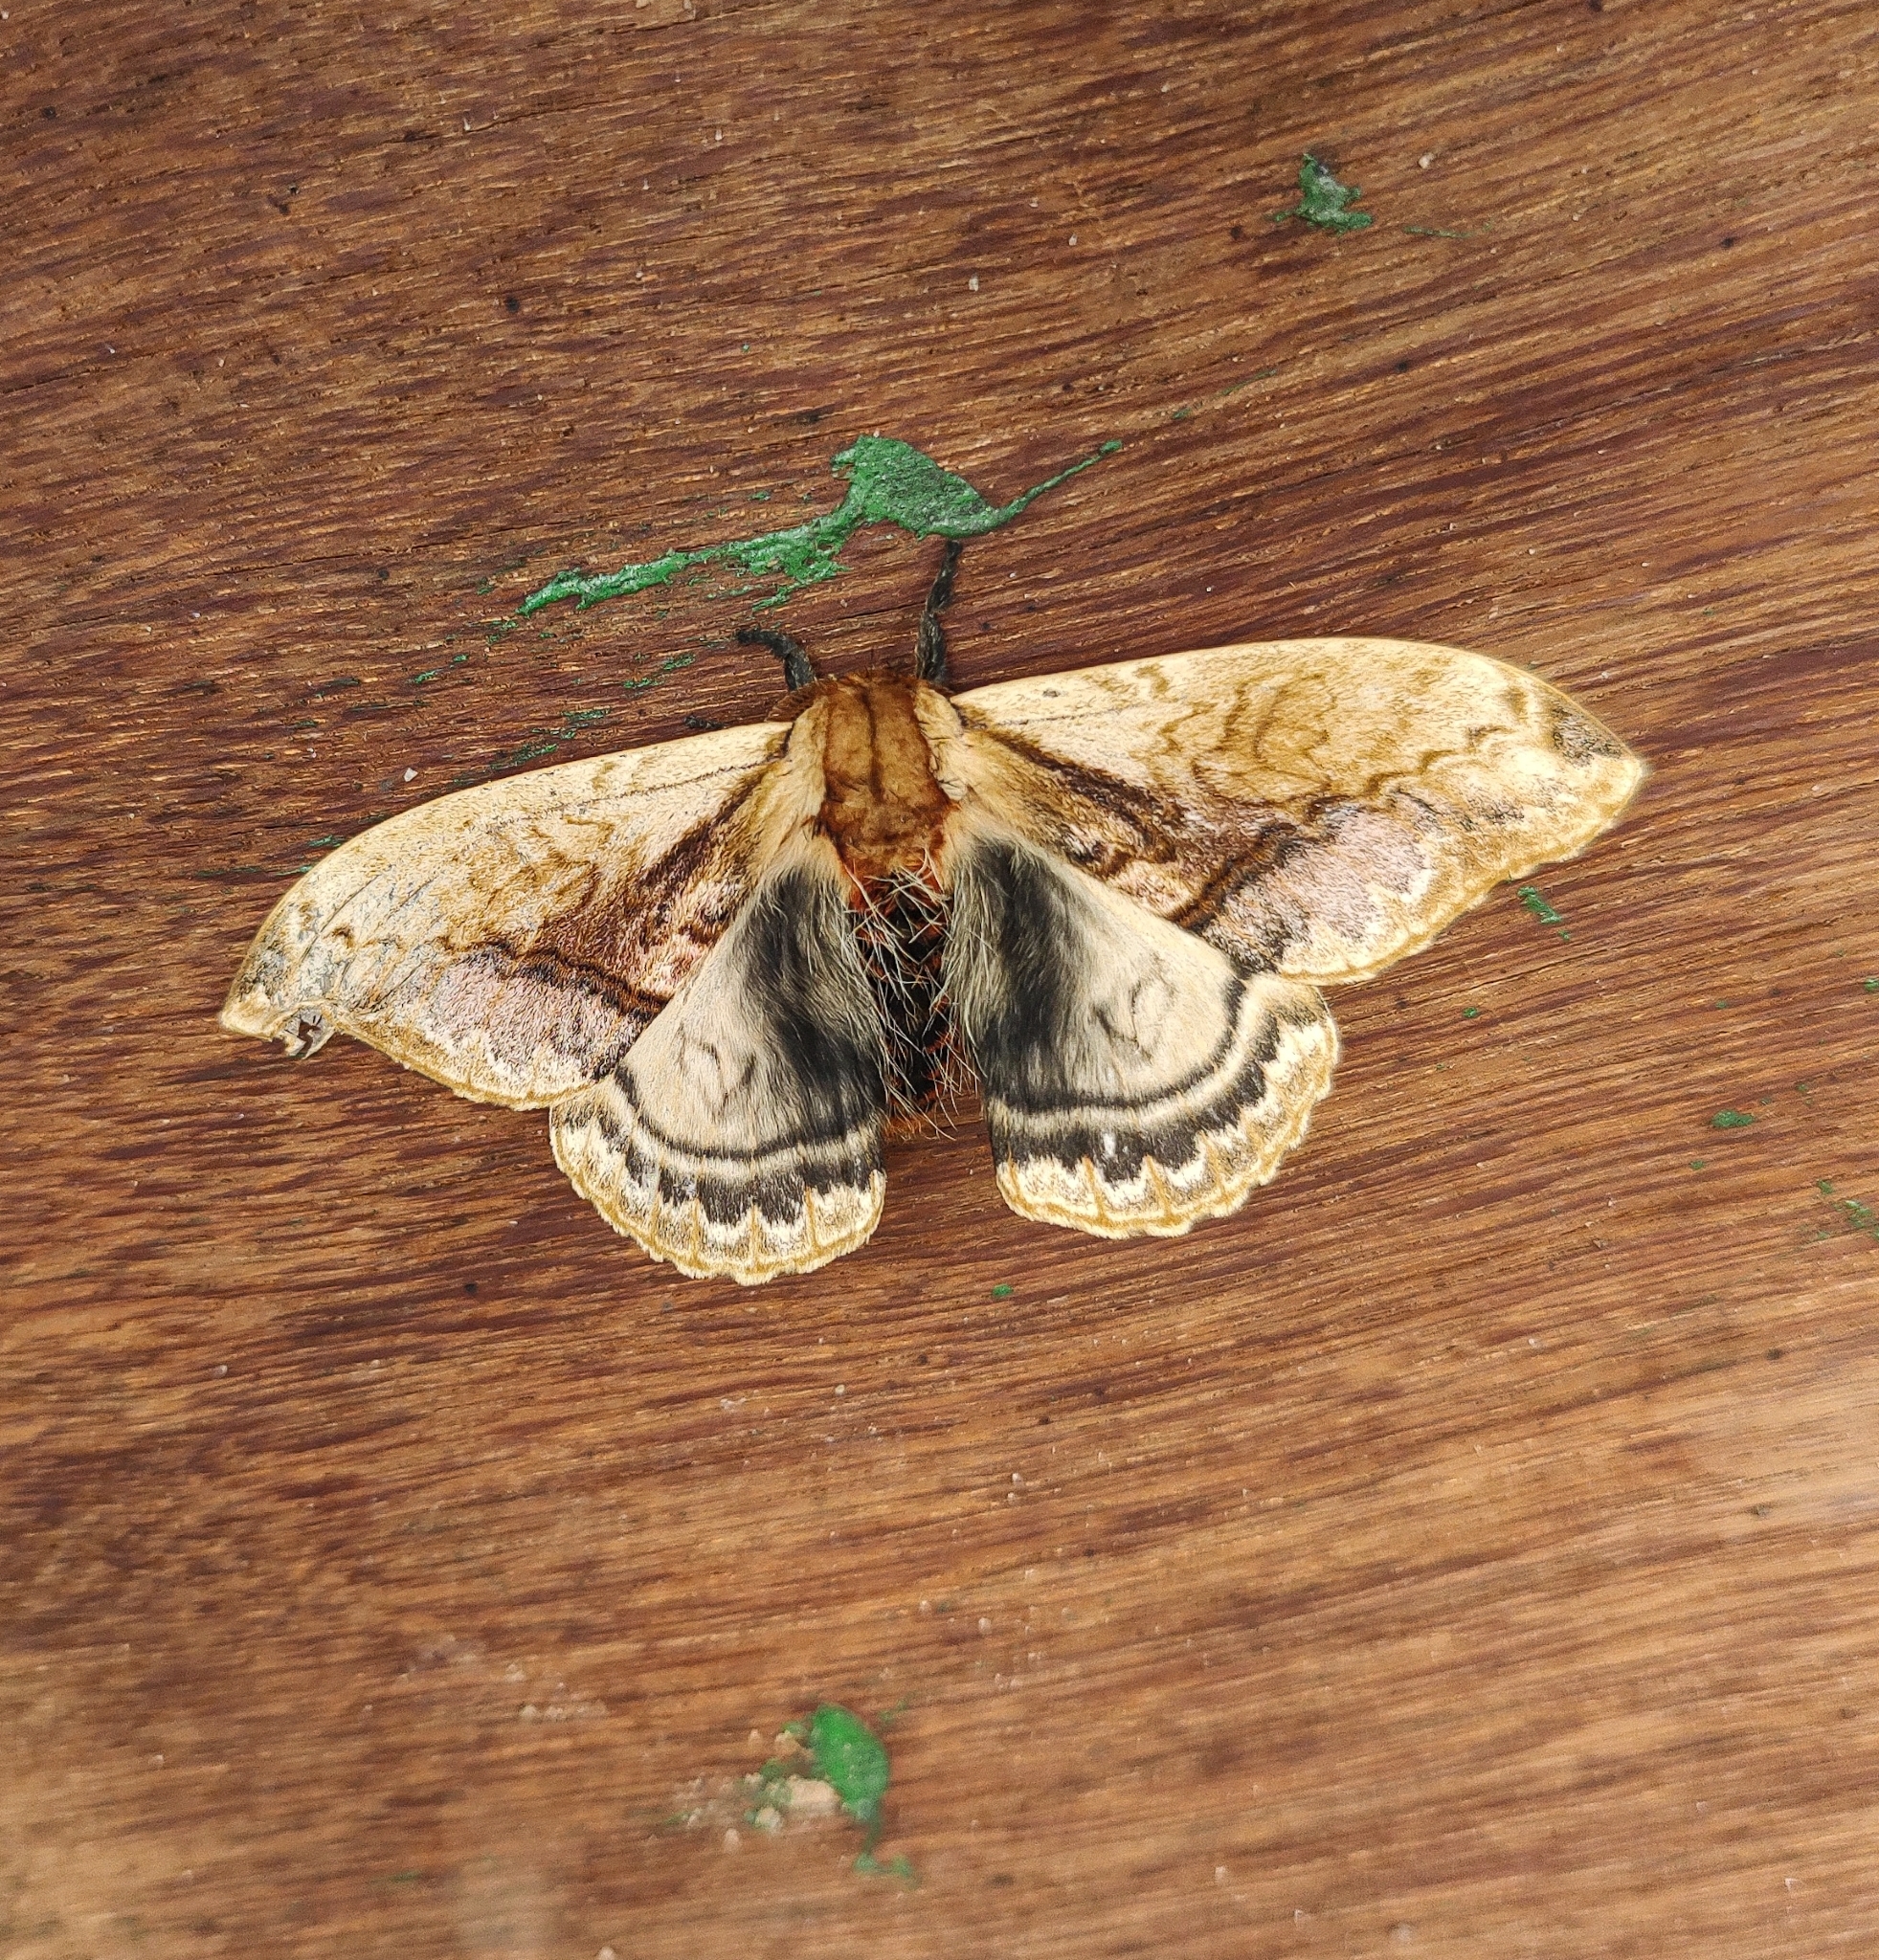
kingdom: Animalia
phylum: Arthropoda
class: Insecta
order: Lepidoptera
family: Saturniidae
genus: Molippa
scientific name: Molippa sabina
